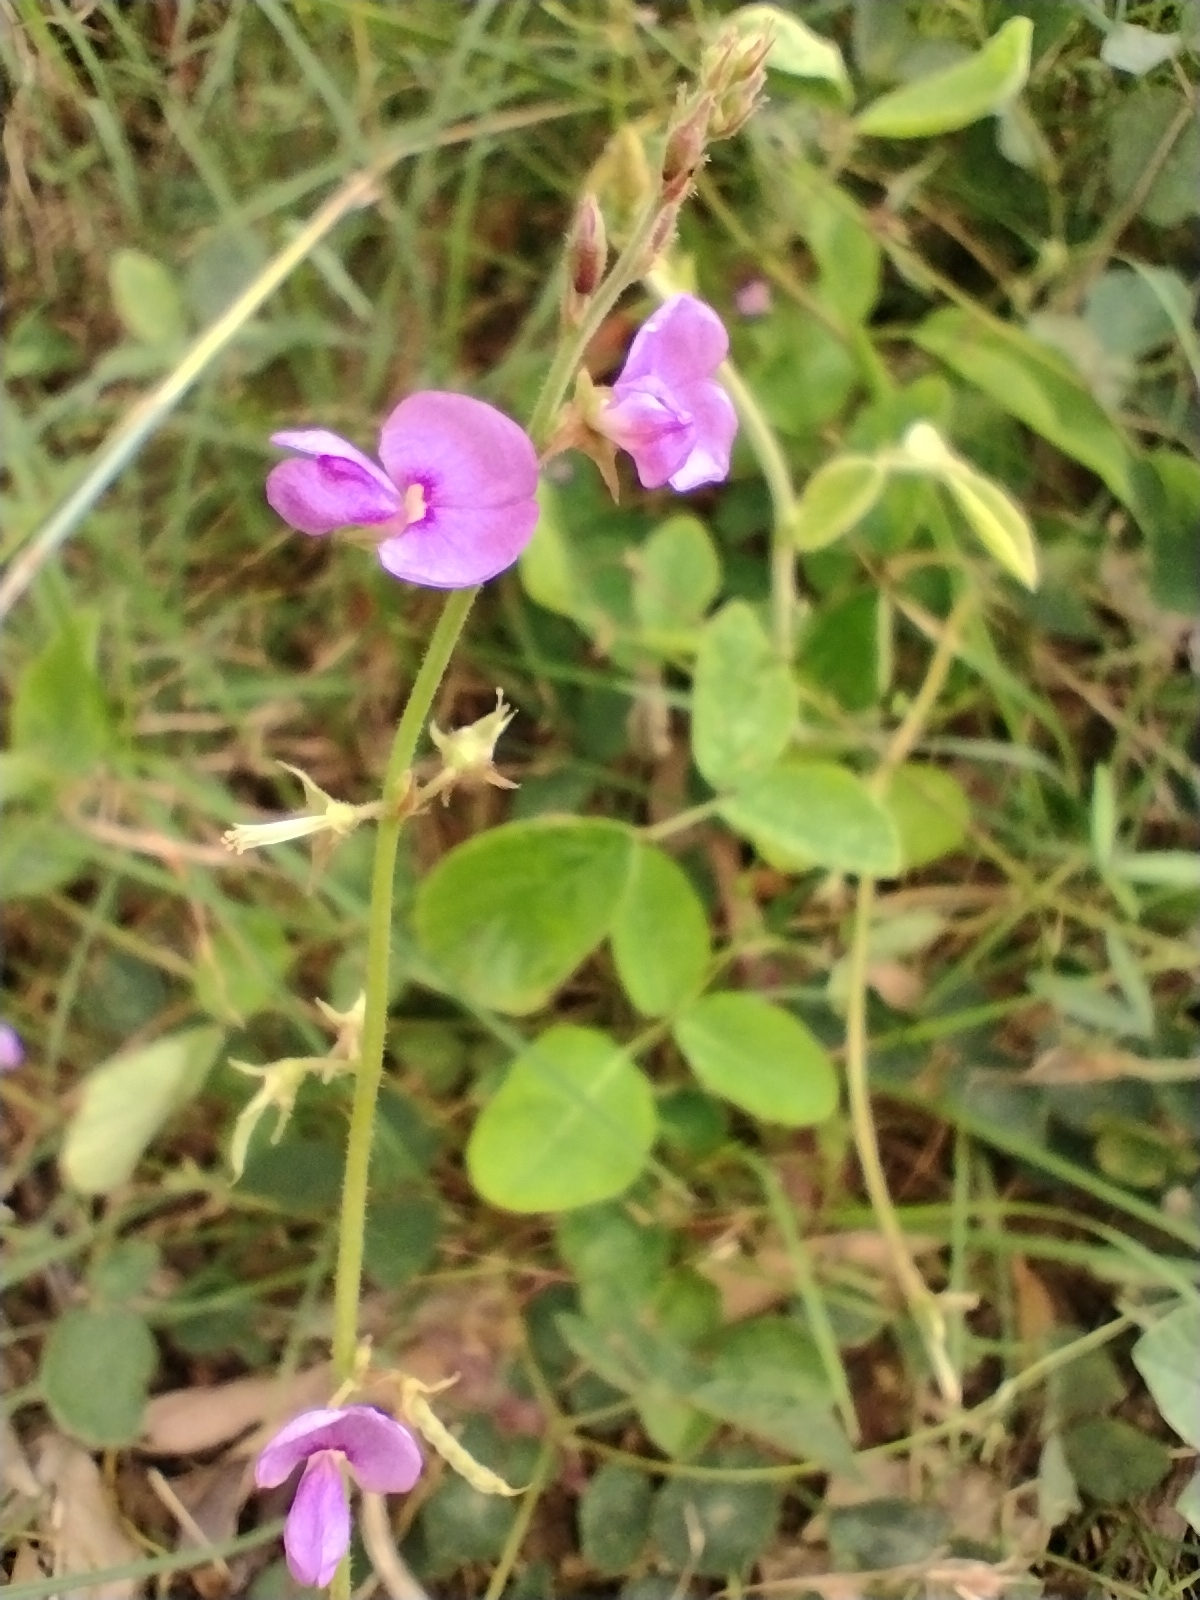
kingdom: Plantae
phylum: Tracheophyta
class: Magnoliopsida
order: Fabales
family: Fabaceae
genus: Oxytes
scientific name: Oxytes brachypoda
